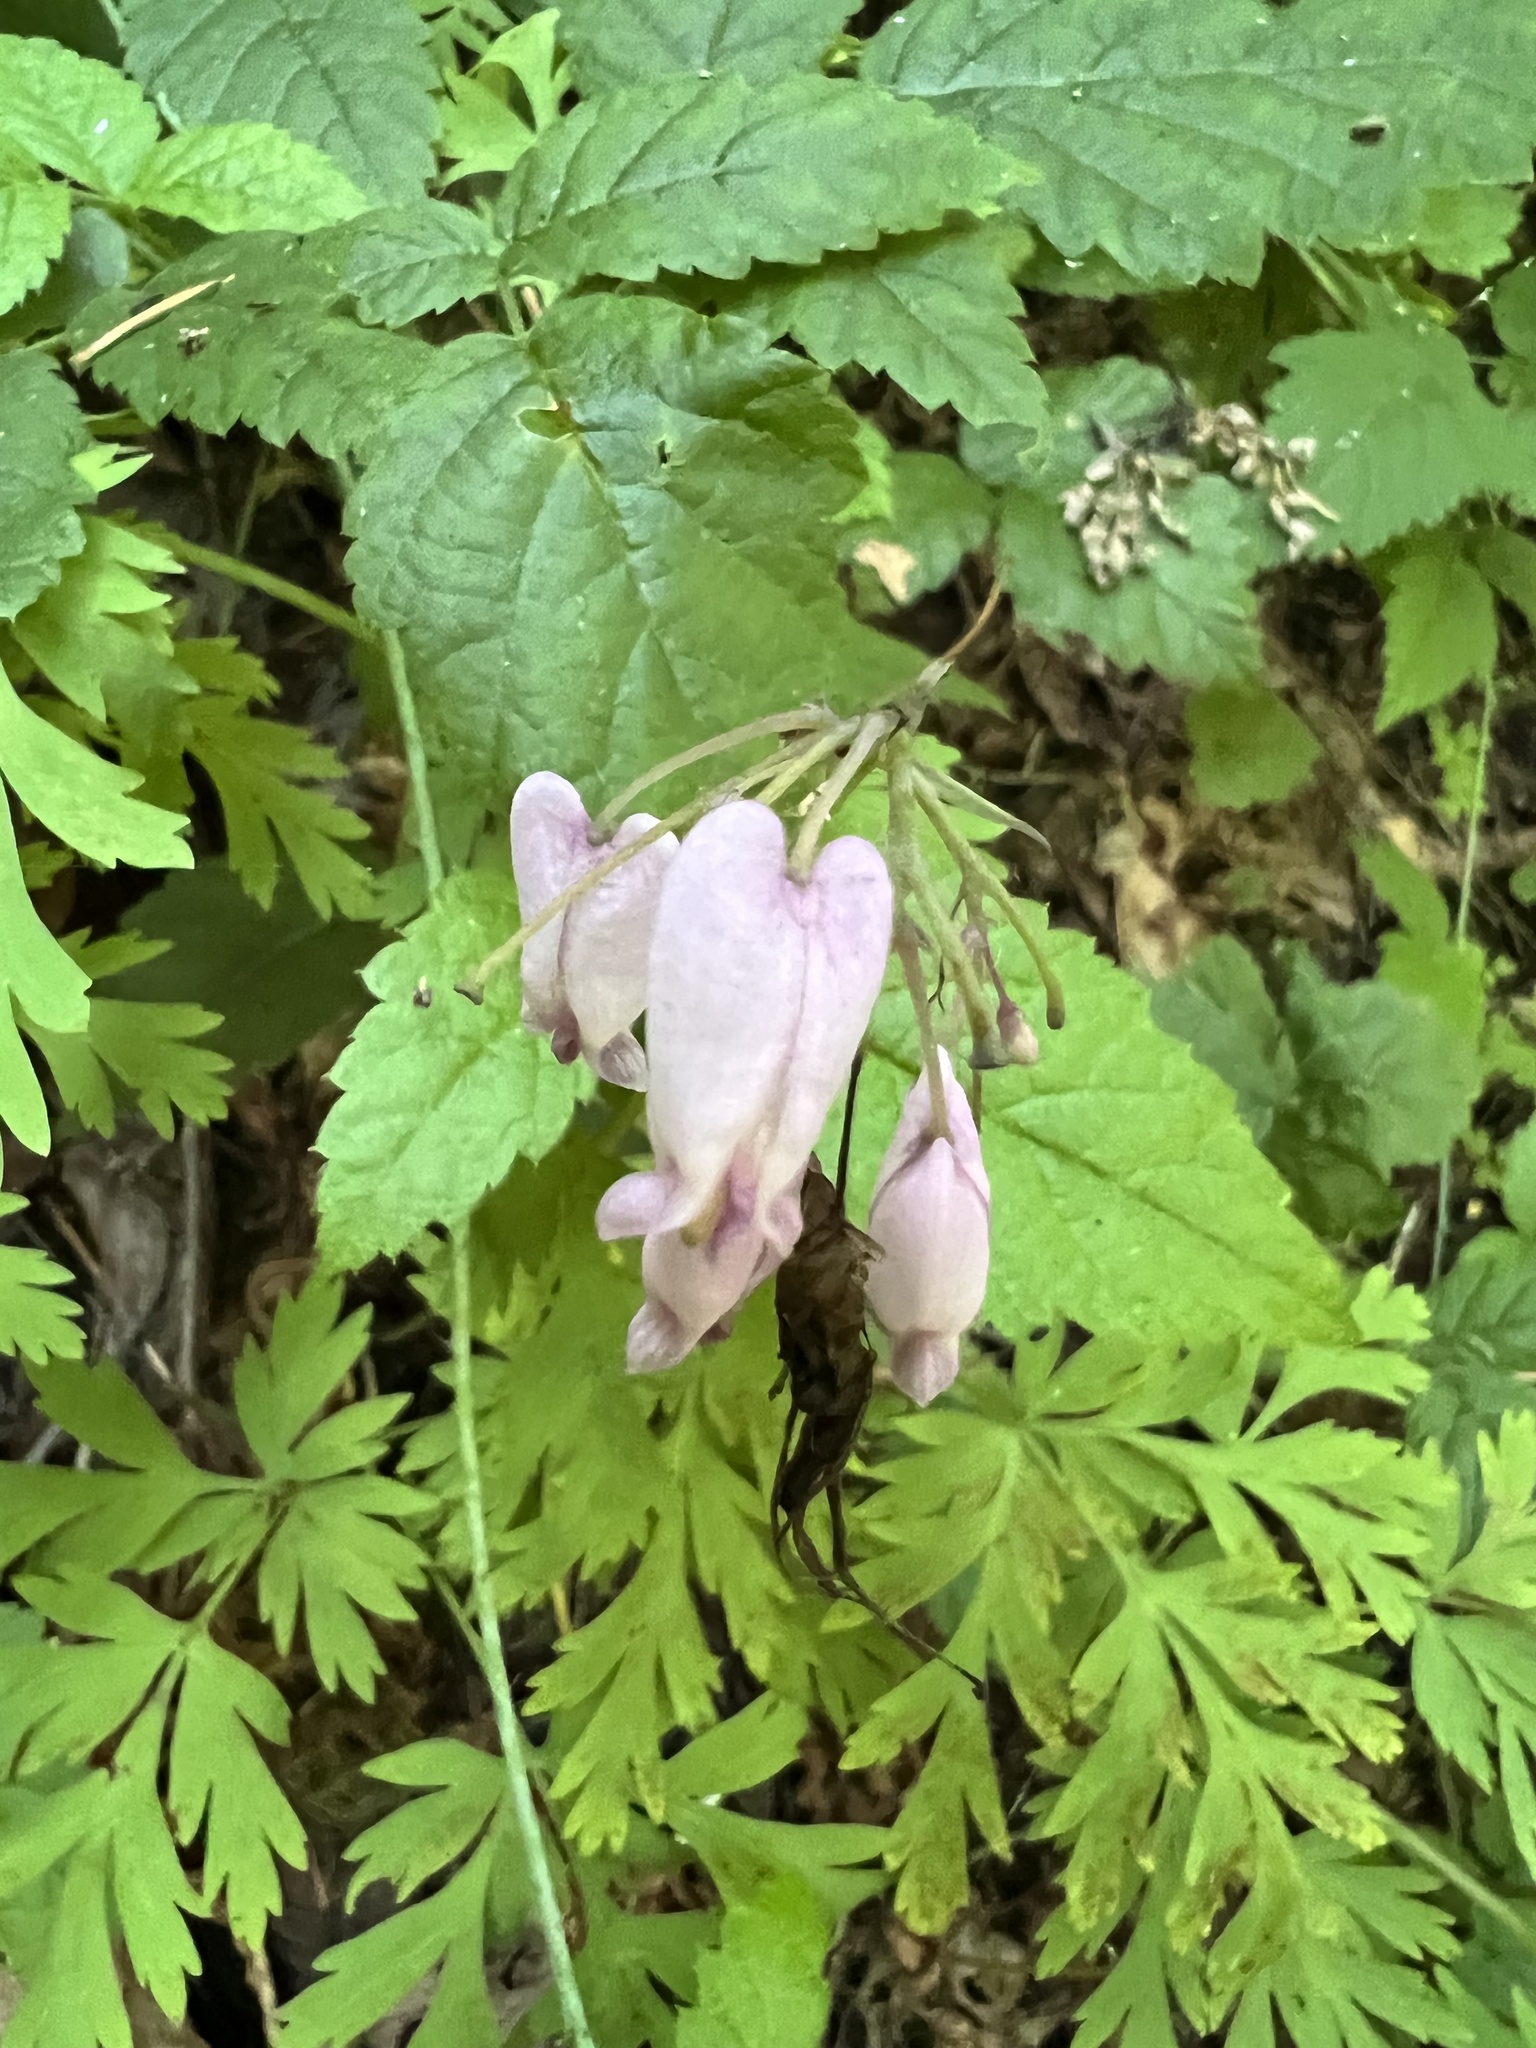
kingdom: Plantae
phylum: Tracheophyta
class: Magnoliopsida
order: Ranunculales
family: Papaveraceae
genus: Dicentra
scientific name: Dicentra formosa
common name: Bleeding-heart
